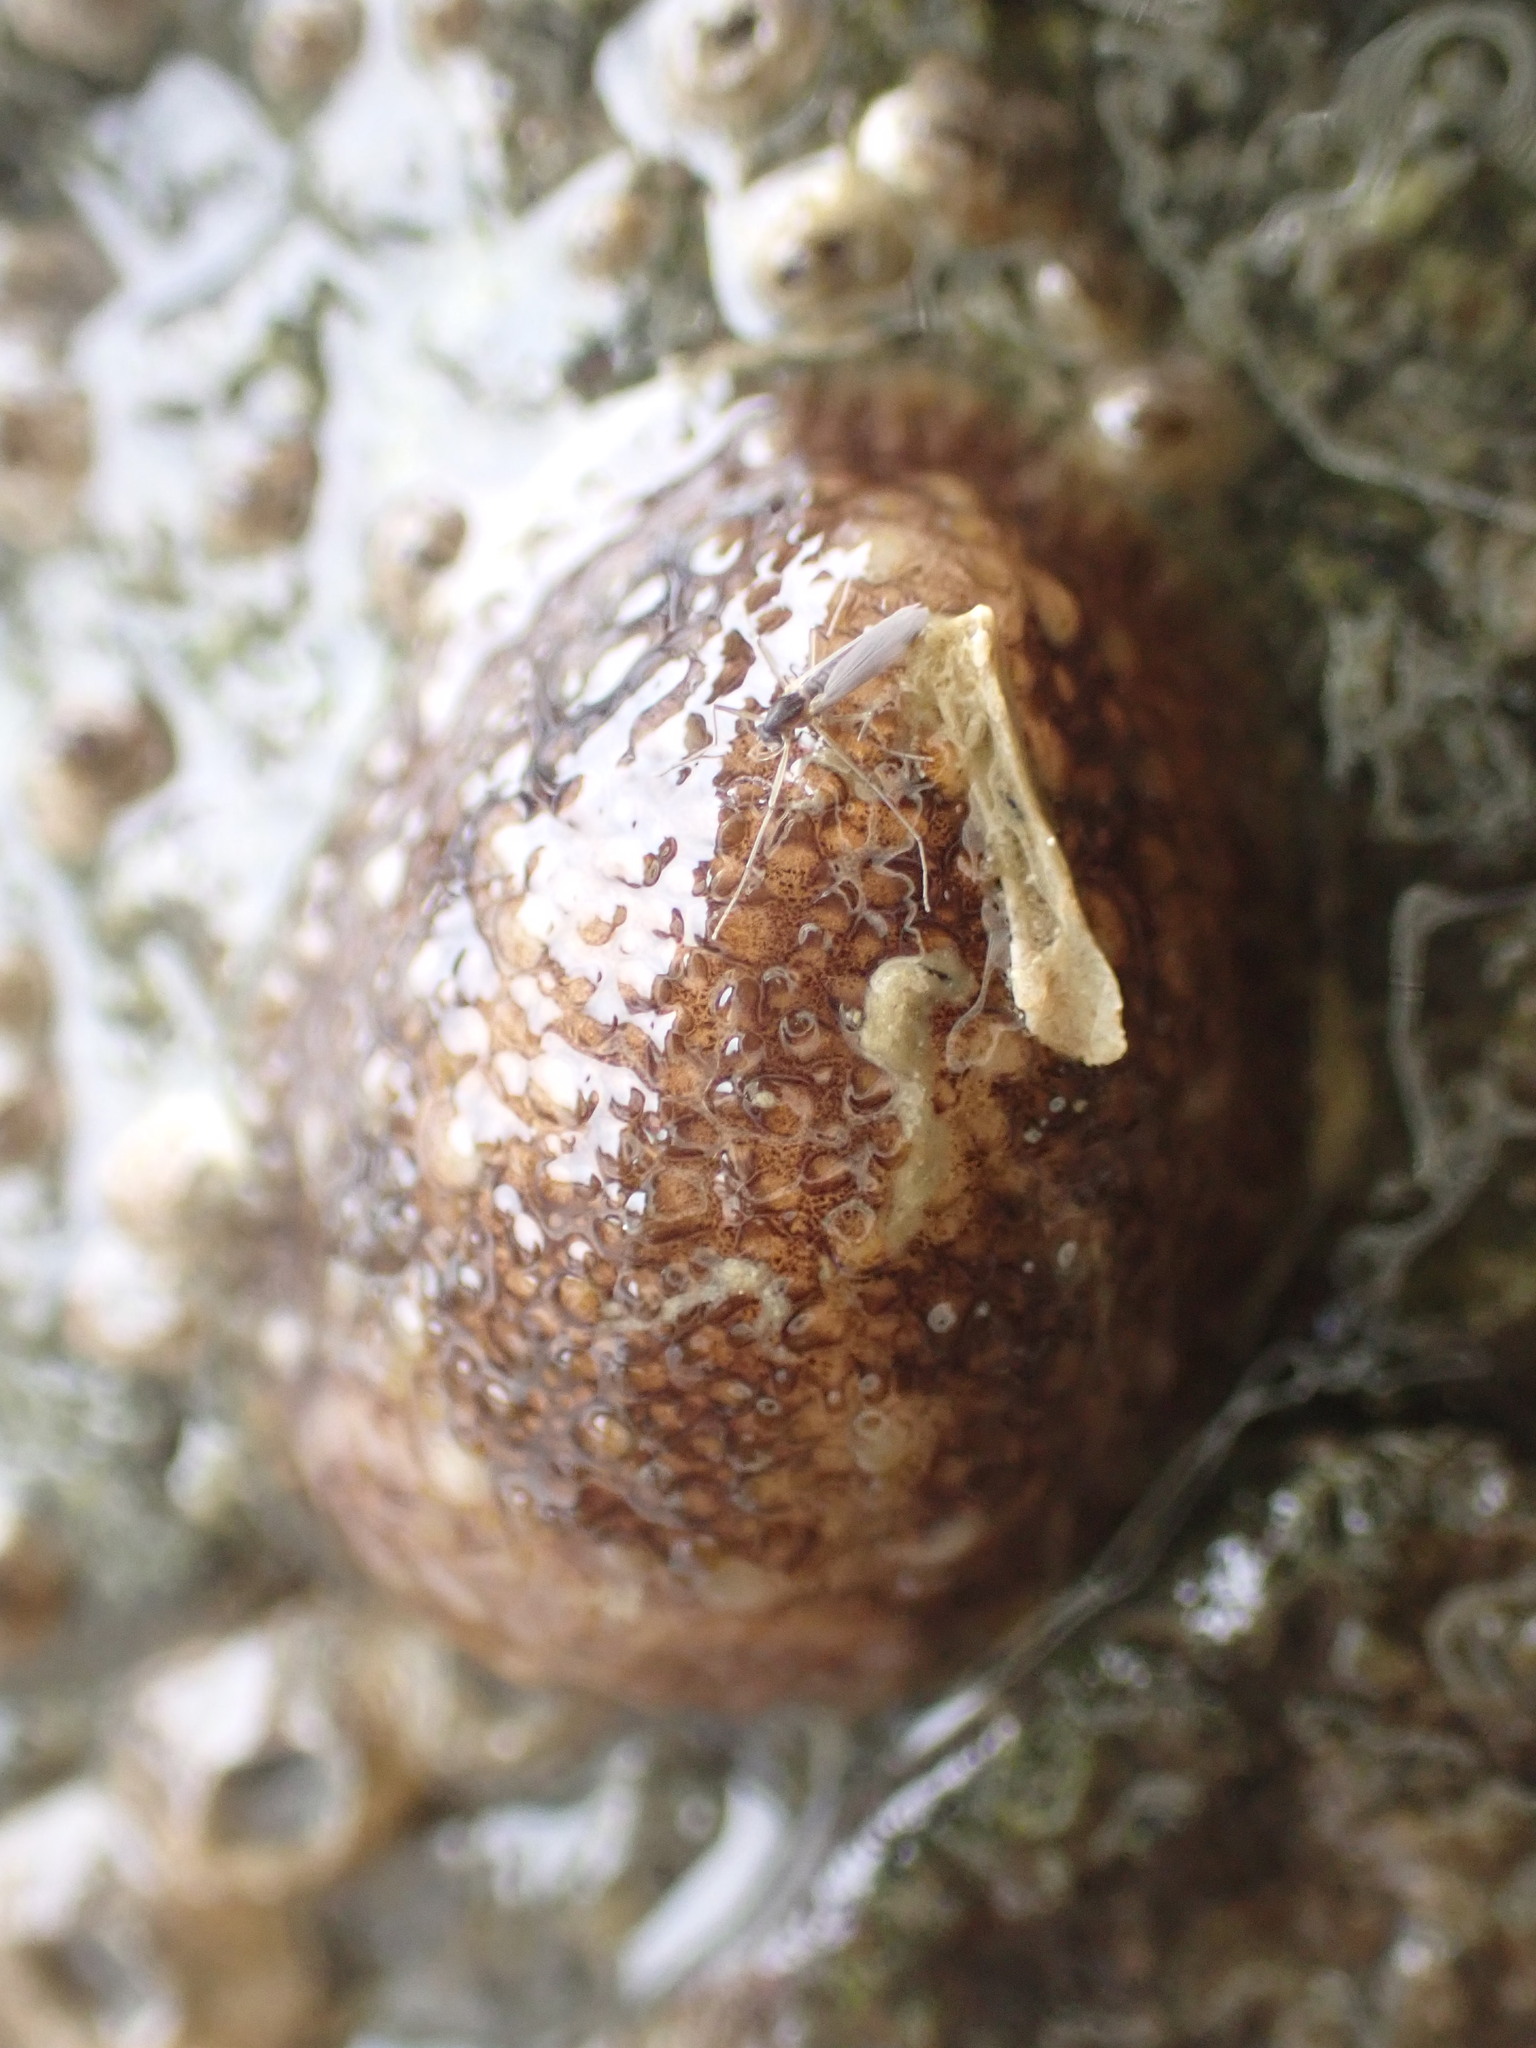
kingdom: Animalia
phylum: Mollusca
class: Gastropoda
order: Nudibranchia
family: Onchidorididae
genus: Onchidoris
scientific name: Onchidoris bilamellata
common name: Barnacle-eating onchidoris
